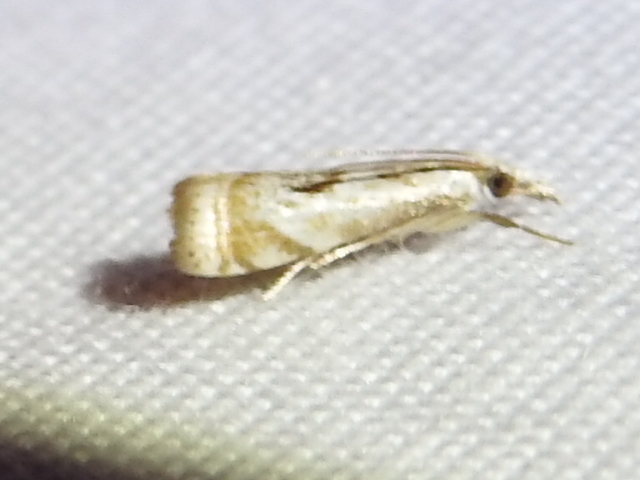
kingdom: Animalia
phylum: Arthropoda
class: Insecta
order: Lepidoptera
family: Crambidae
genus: Microcrambus
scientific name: Microcrambus elegans
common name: Elegant grass-veneer
